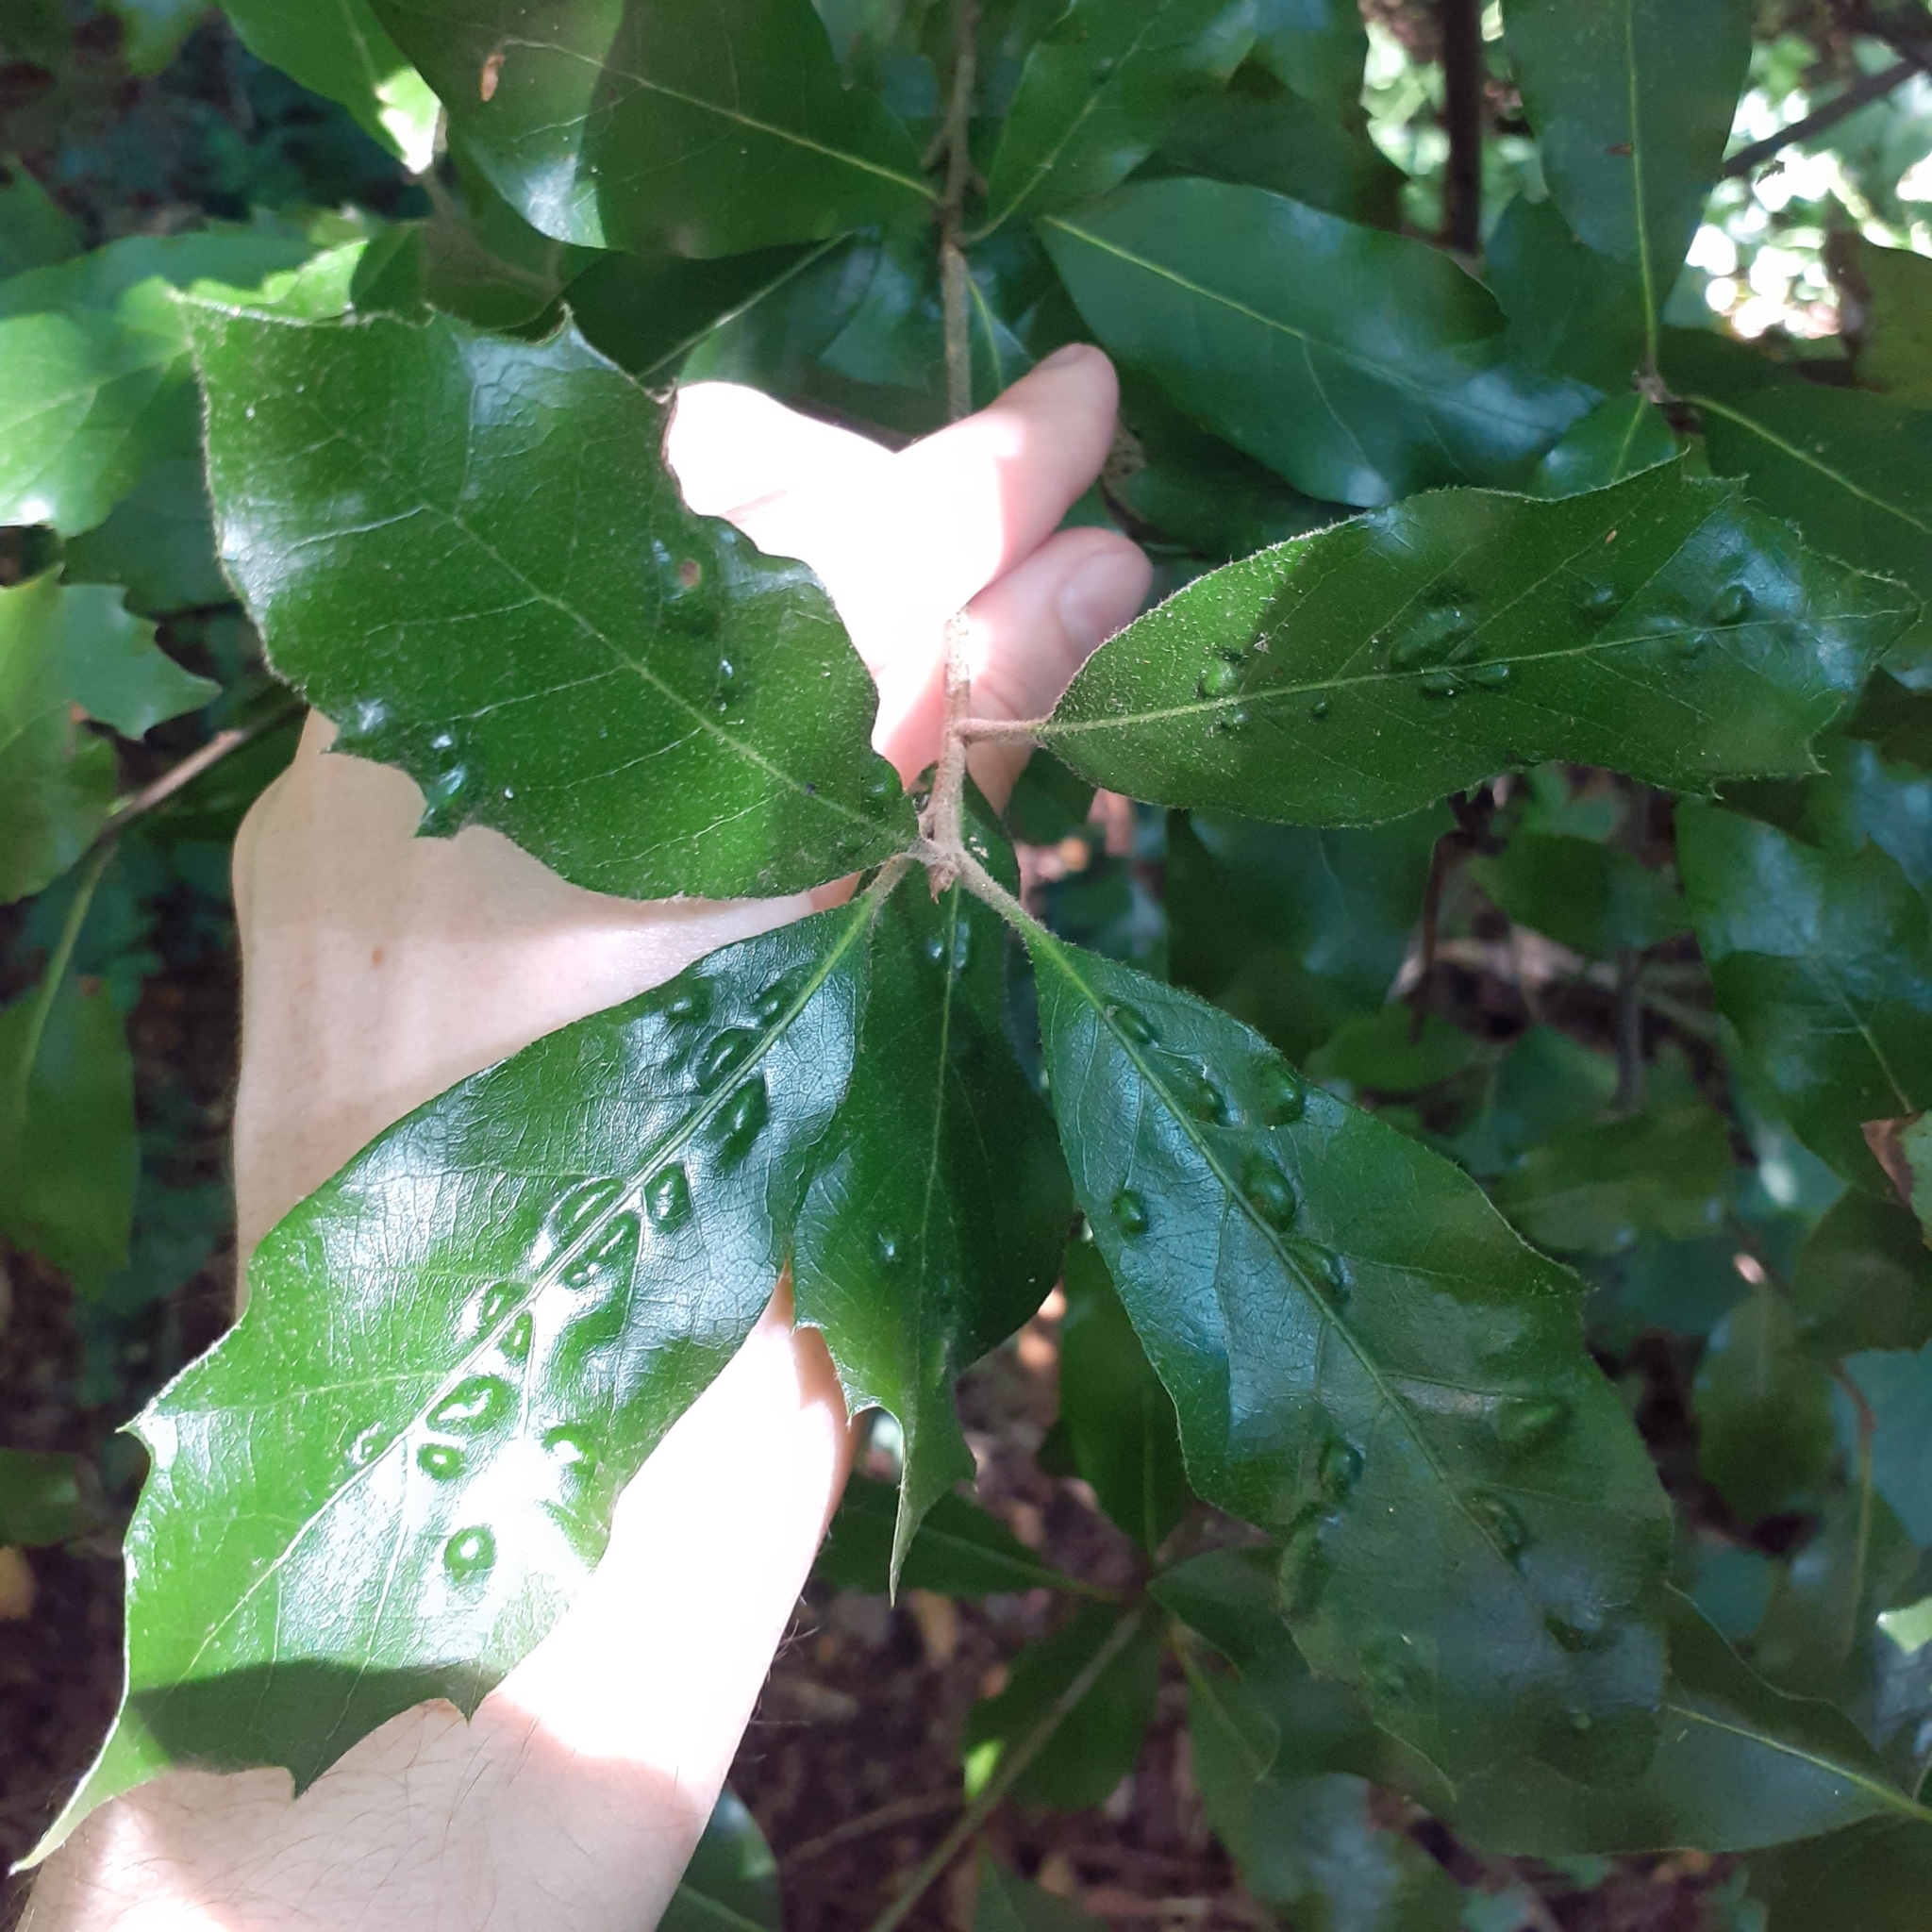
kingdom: Animalia
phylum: Arthropoda
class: Arachnida
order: Trombidiformes
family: Eriophyidae
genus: Aceria
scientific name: Aceria ilicis
